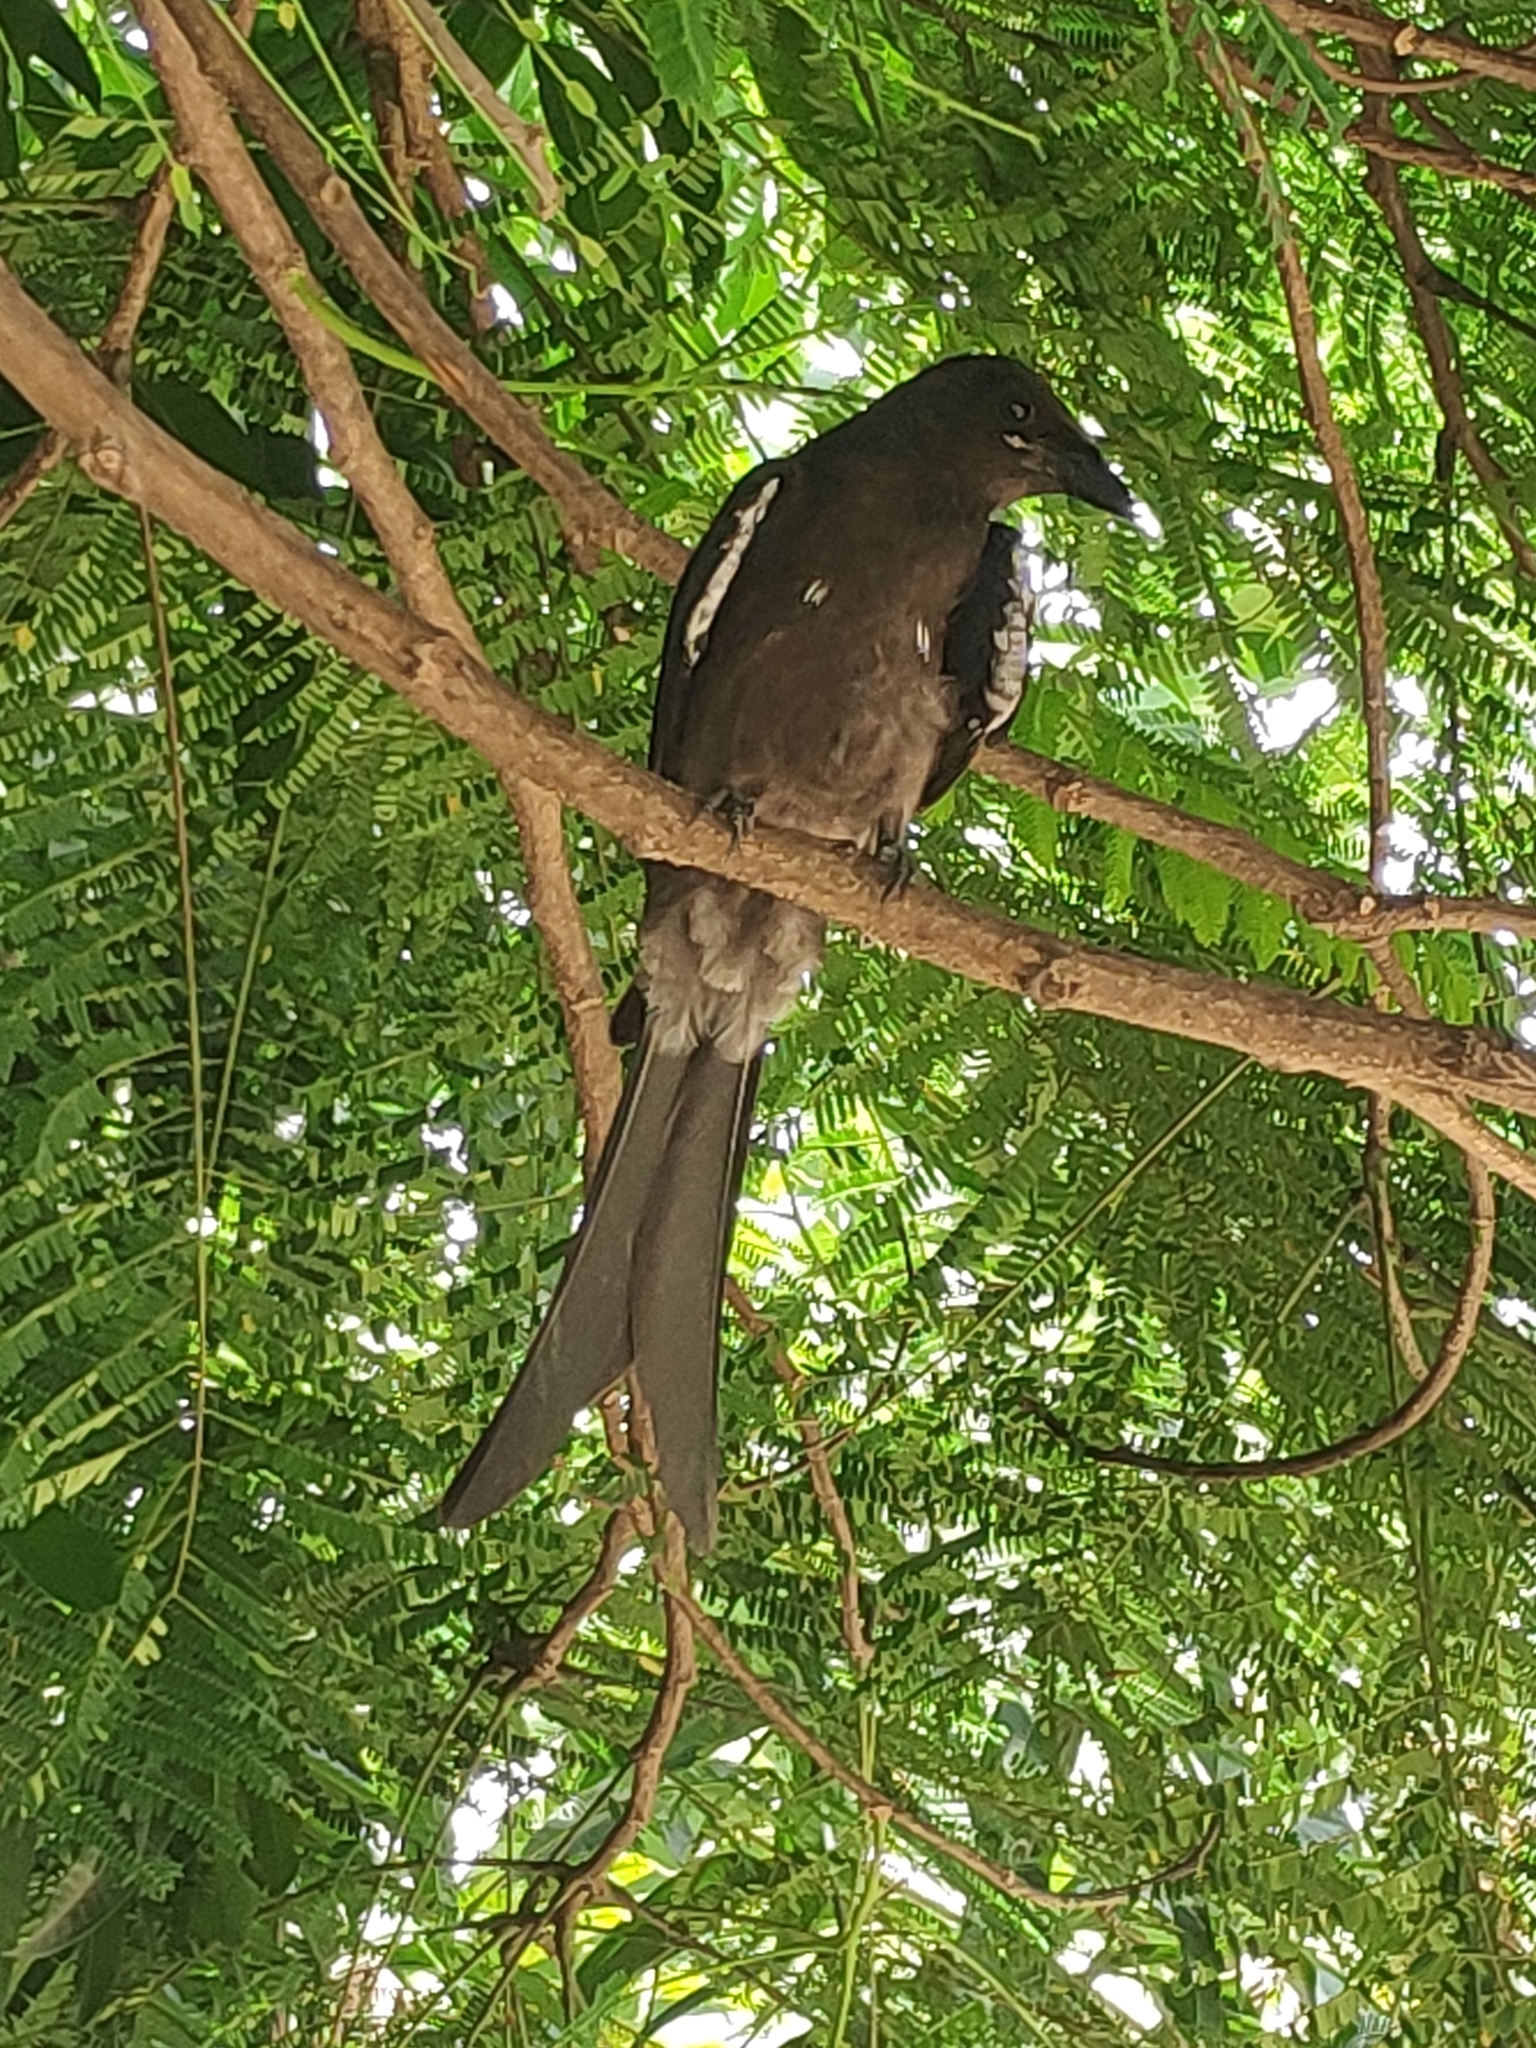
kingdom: Animalia
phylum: Chordata
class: Aves
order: Passeriformes
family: Dicruridae
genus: Dicrurus
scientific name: Dicrurus macrocercus
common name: Black drongo
